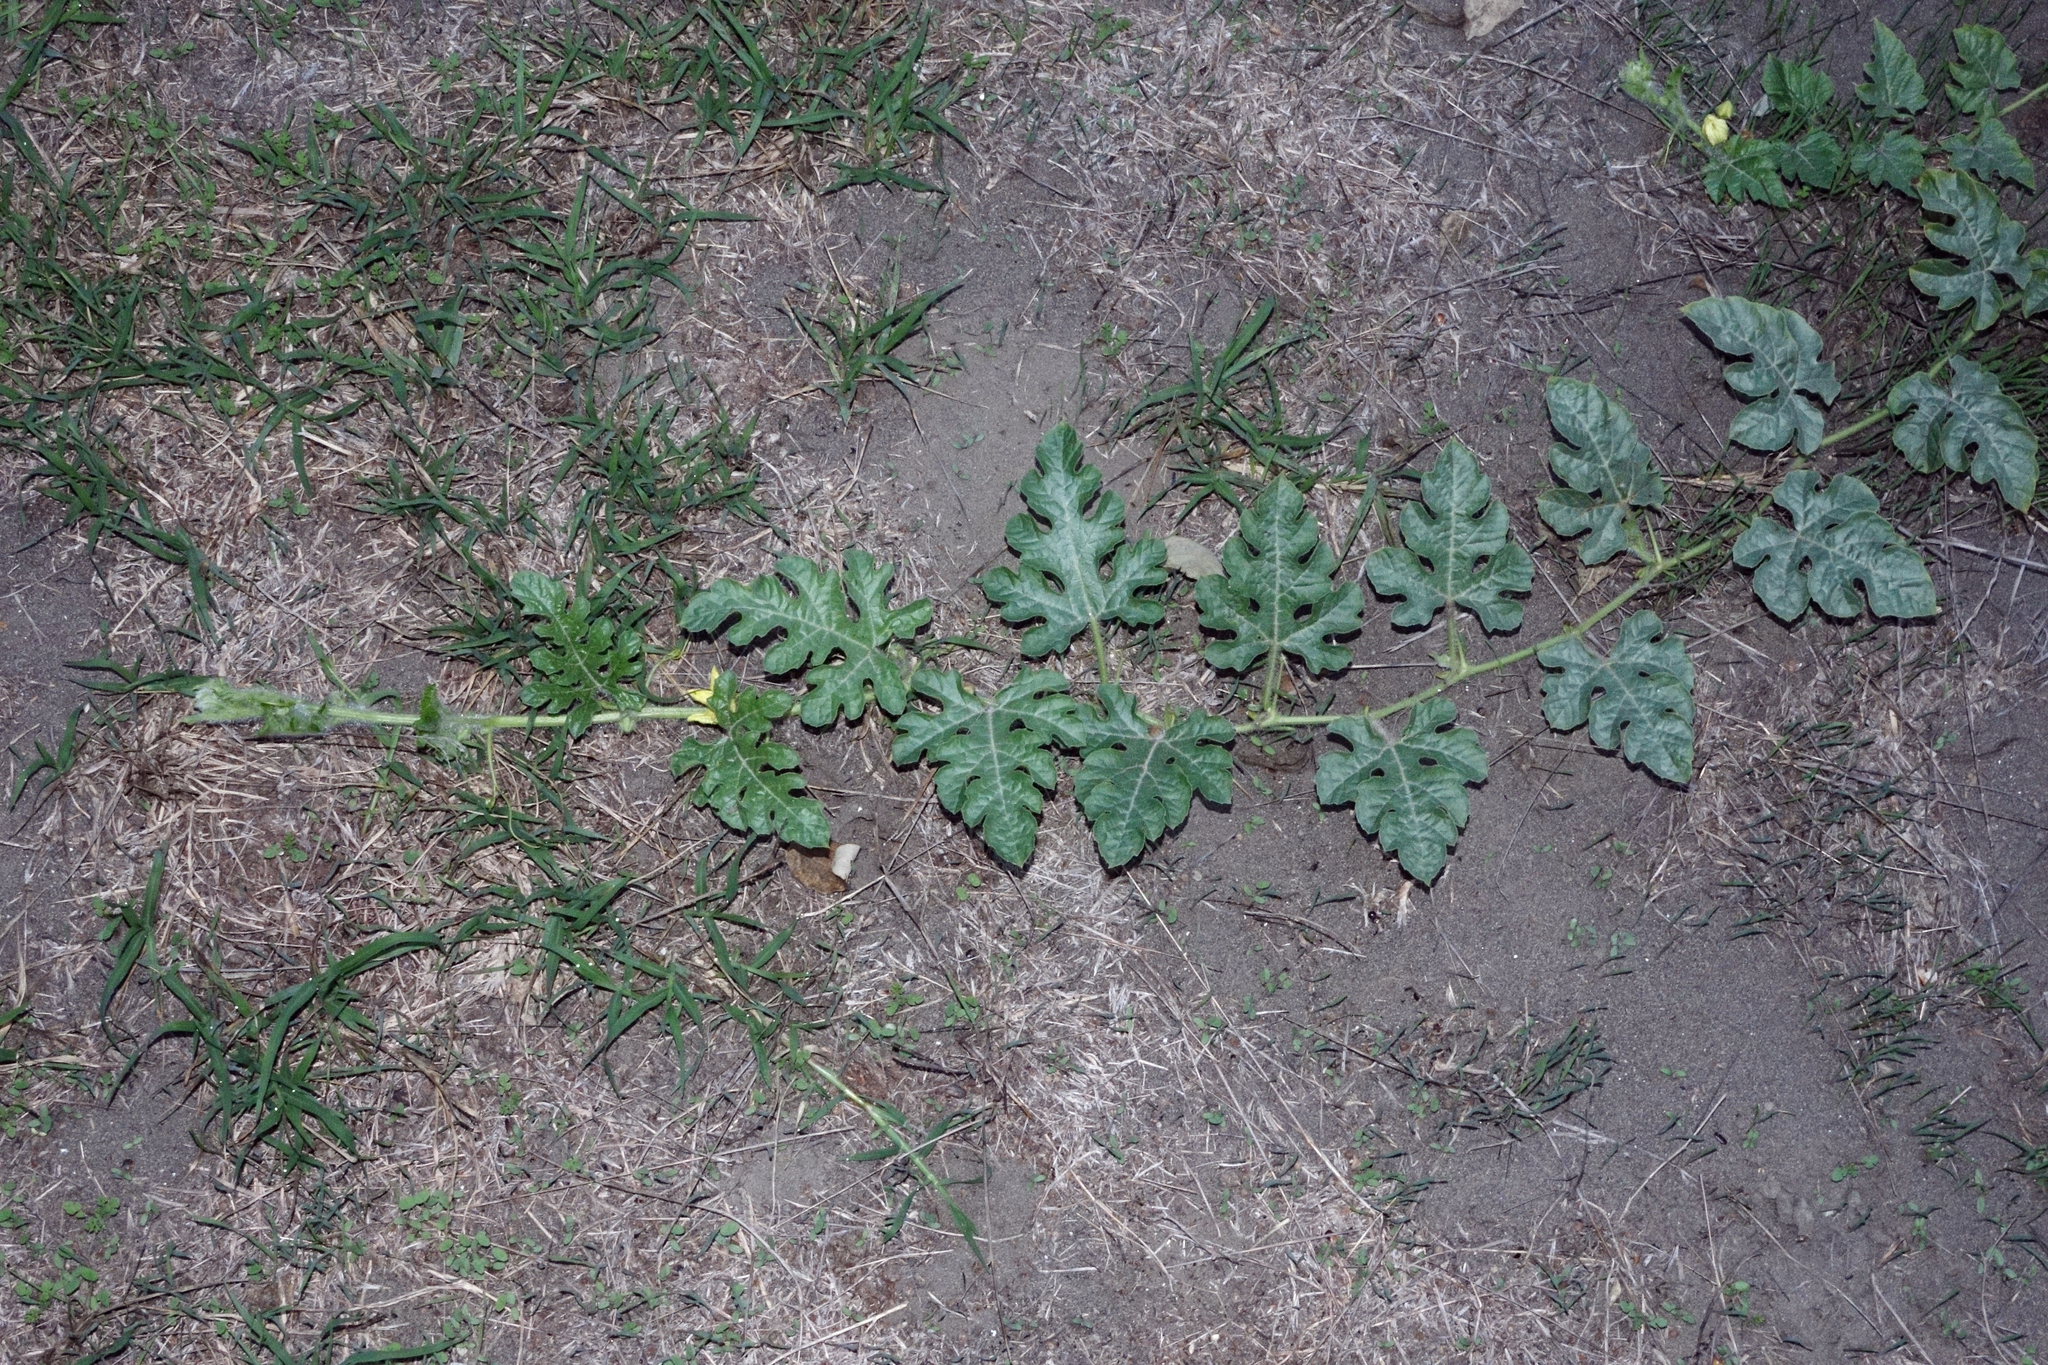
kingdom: Plantae
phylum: Tracheophyta
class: Magnoliopsida
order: Cucurbitales
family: Cucurbitaceae
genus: Citrullus
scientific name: Citrullus lanatus
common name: Watermelon
